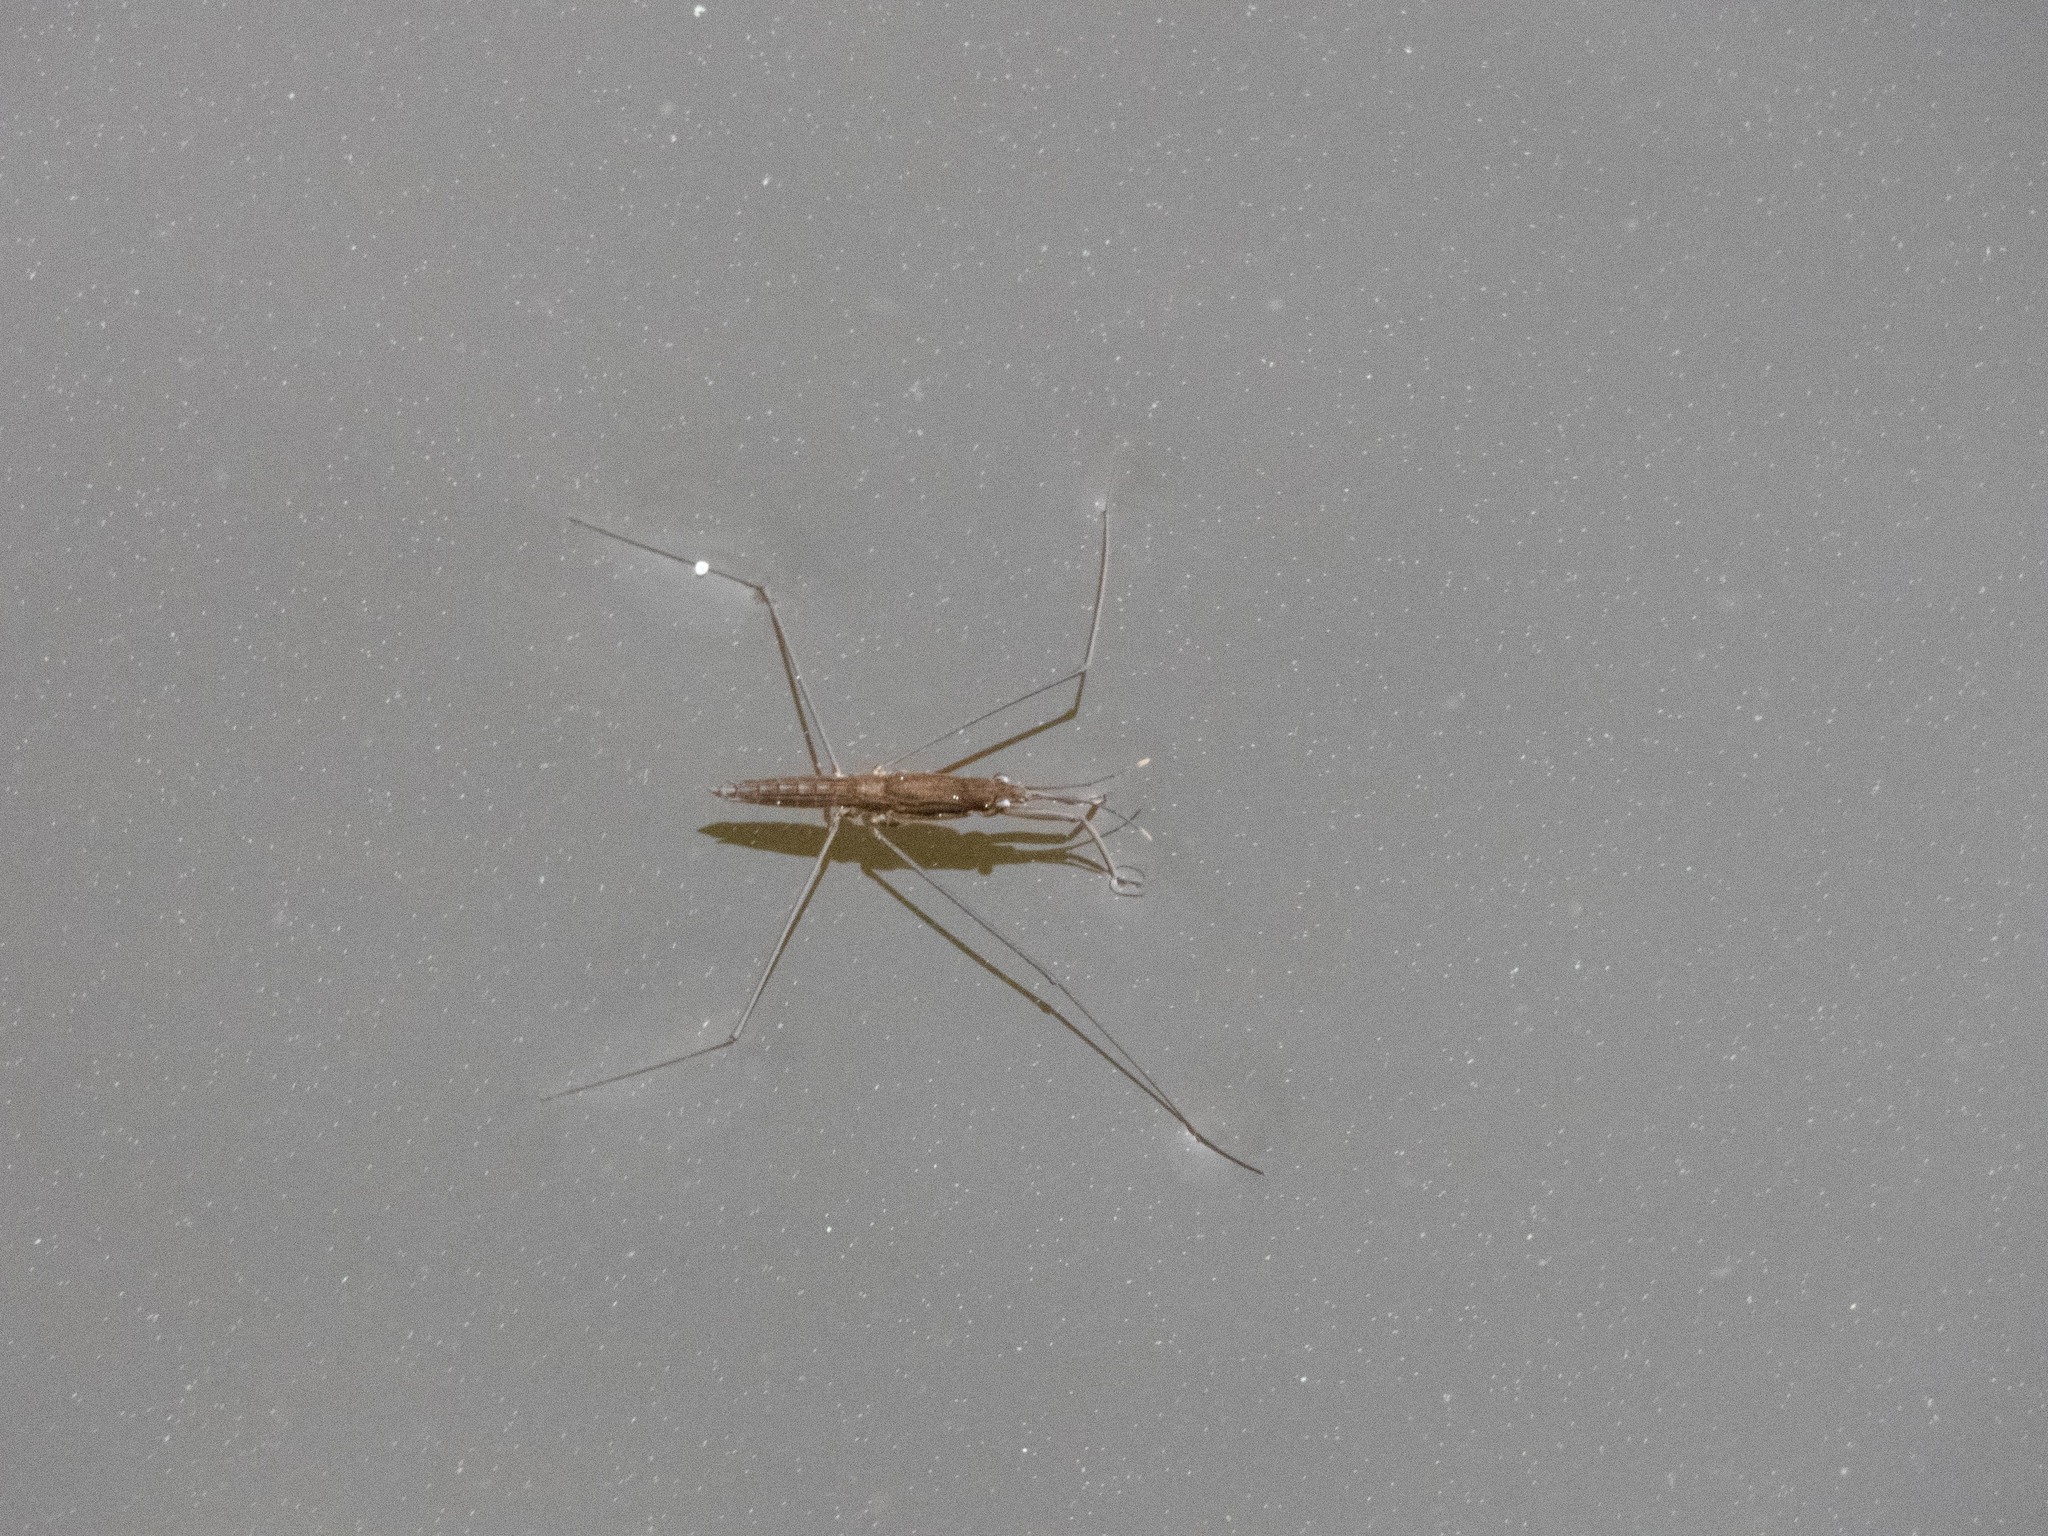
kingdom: Animalia
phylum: Arthropoda
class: Insecta
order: Hemiptera
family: Gerridae
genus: Aquarius
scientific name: Aquarius najas
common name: River skater
